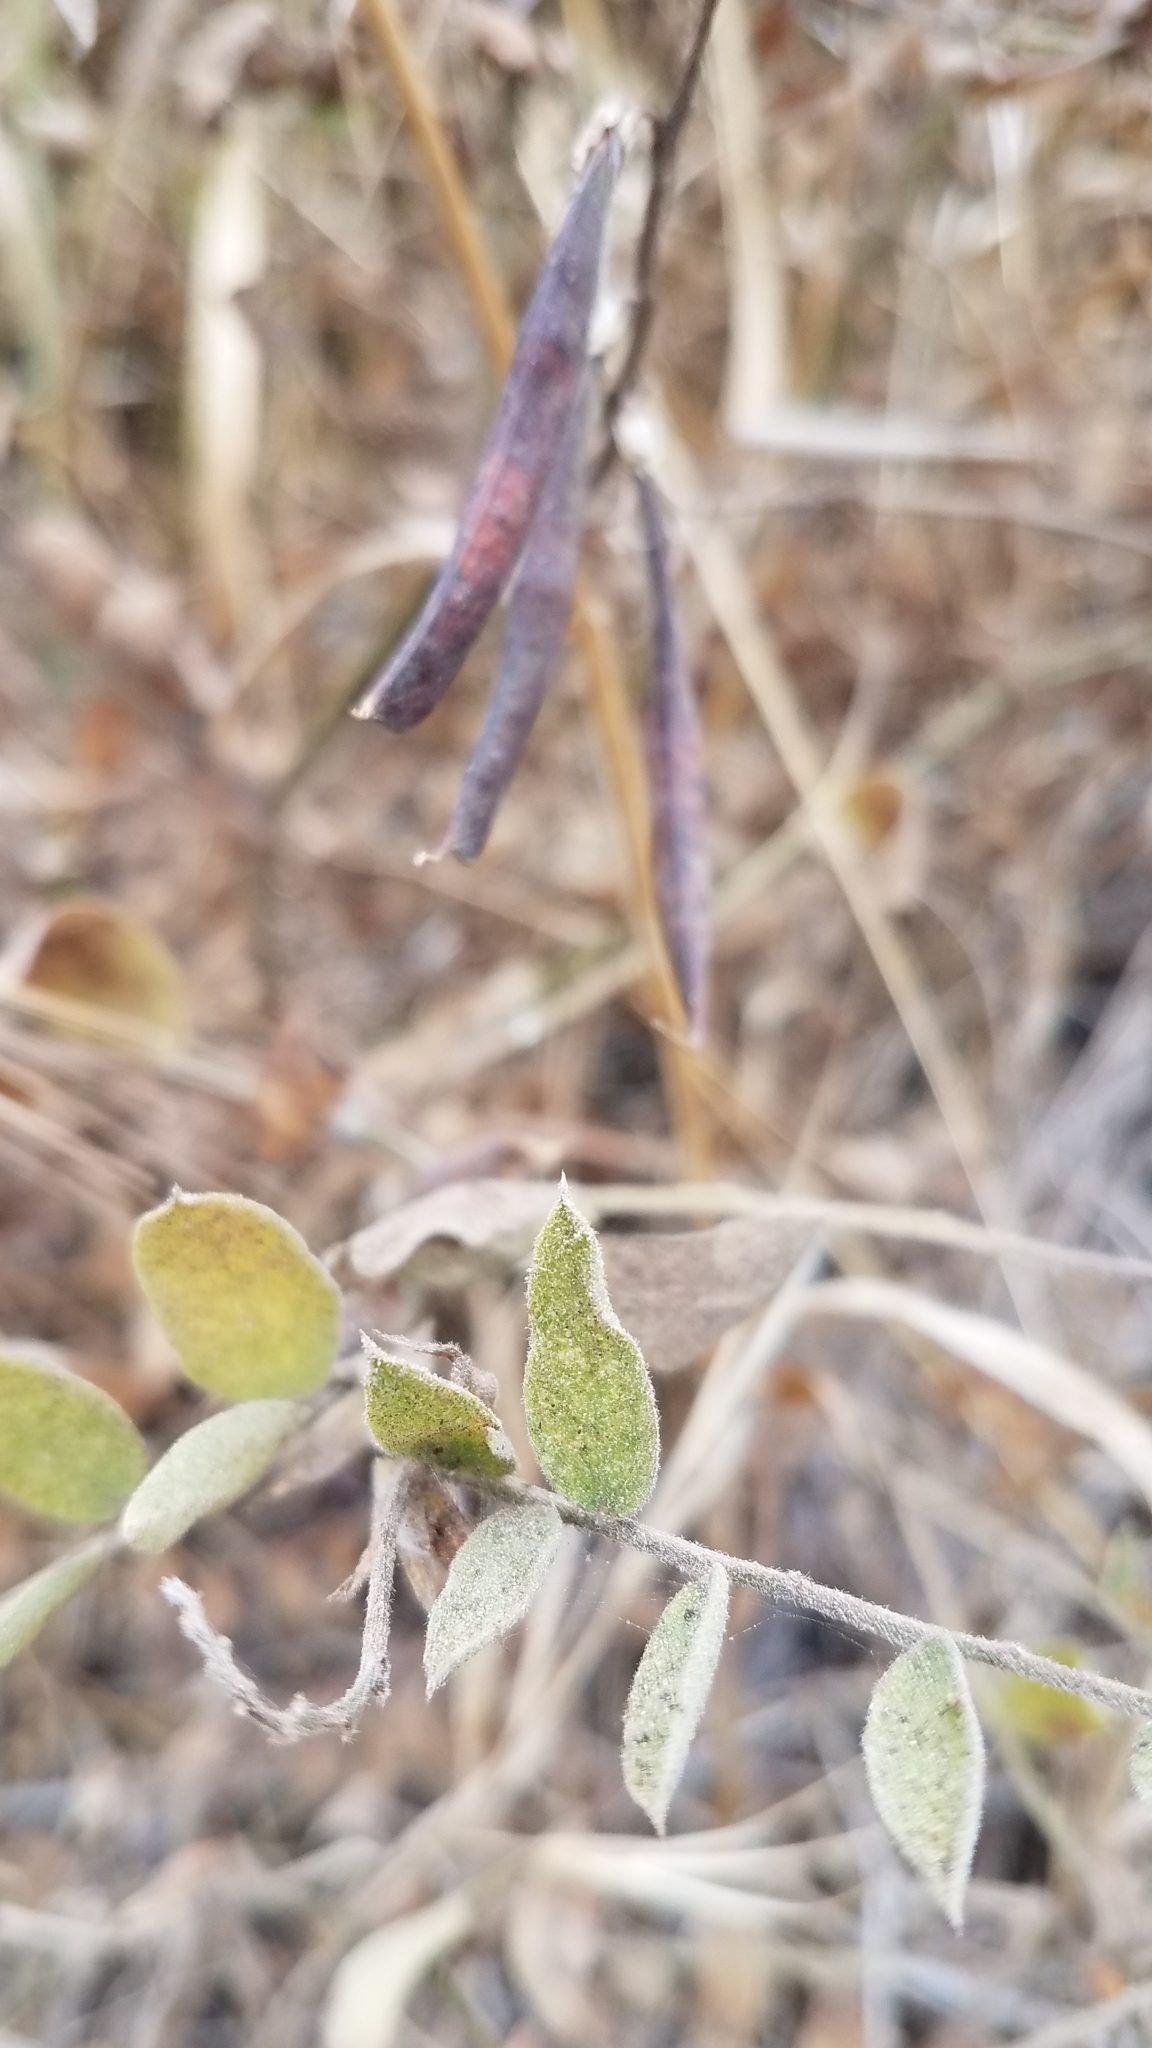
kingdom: Plantae
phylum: Tracheophyta
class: Magnoliopsida
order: Fabales
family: Fabaceae
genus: Lathyrus
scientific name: Lathyrus vestitus
